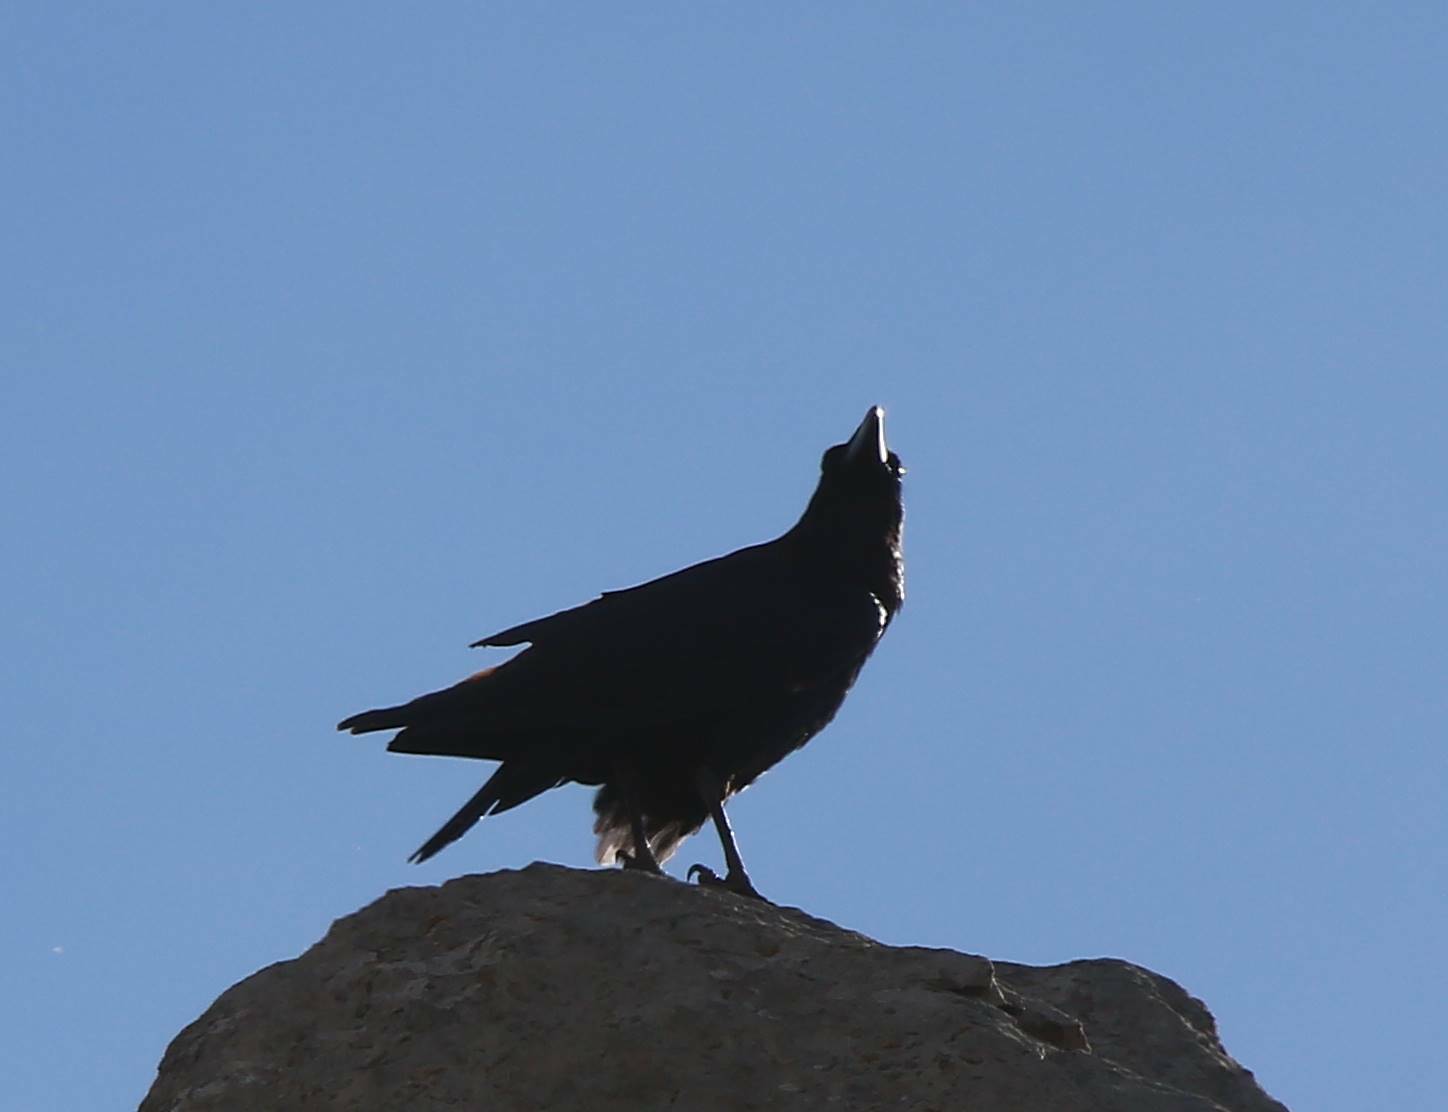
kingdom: Animalia
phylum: Chordata
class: Aves
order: Passeriformes
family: Corvidae
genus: Corvus
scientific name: Corvus corax
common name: Common raven
